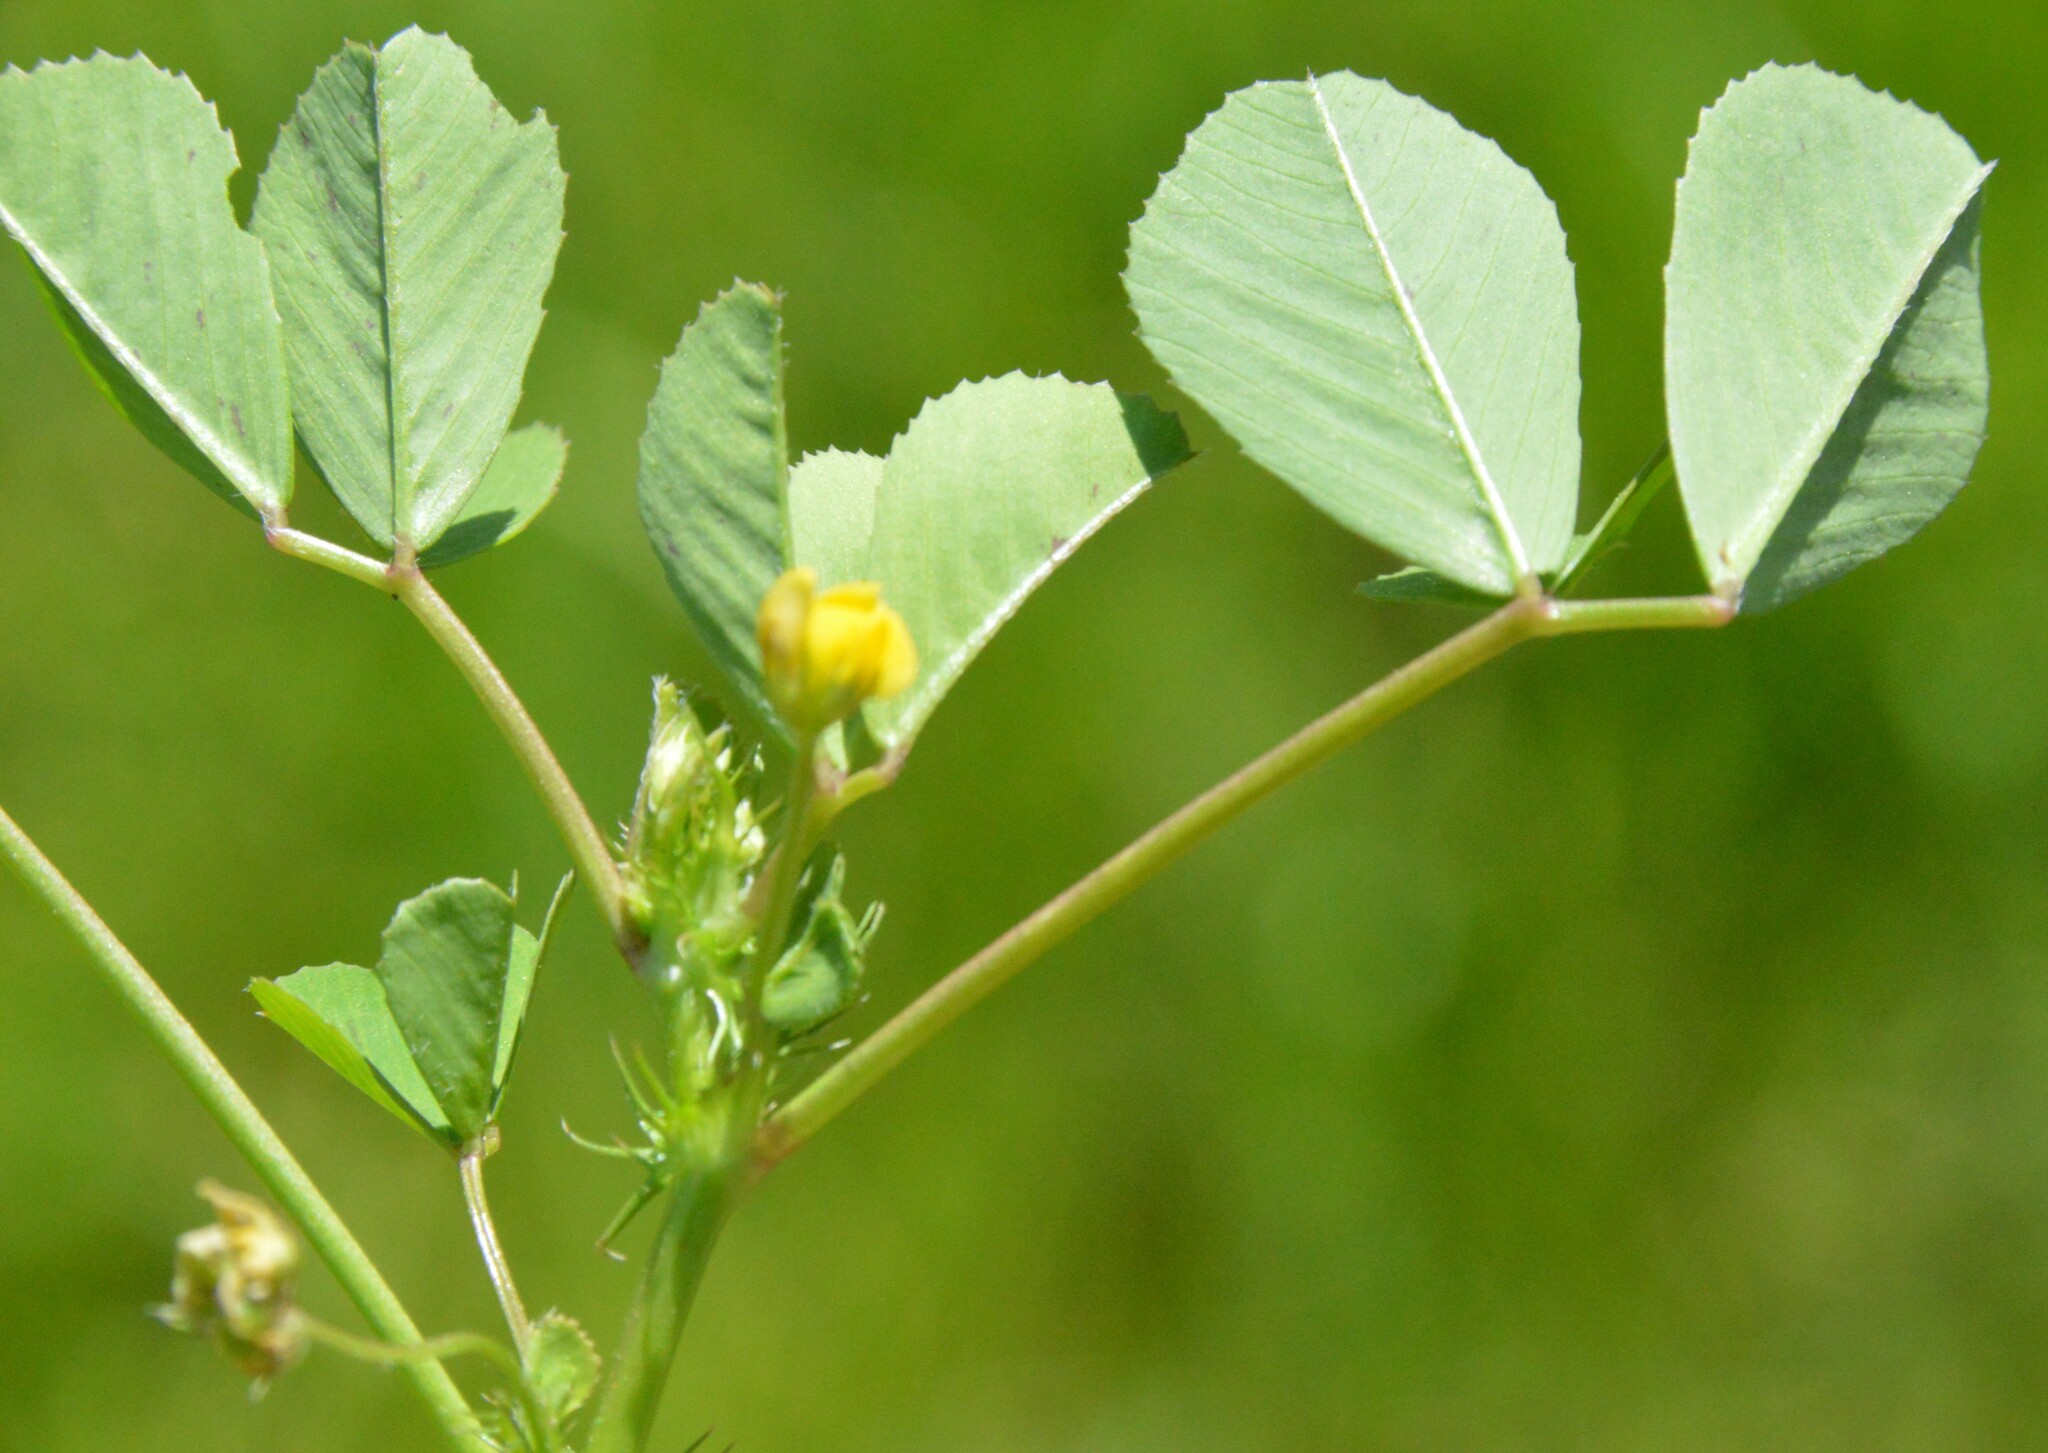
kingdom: Plantae
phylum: Tracheophyta
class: Magnoliopsida
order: Fabales
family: Fabaceae
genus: Medicago
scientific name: Medicago polymorpha
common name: Burclover
